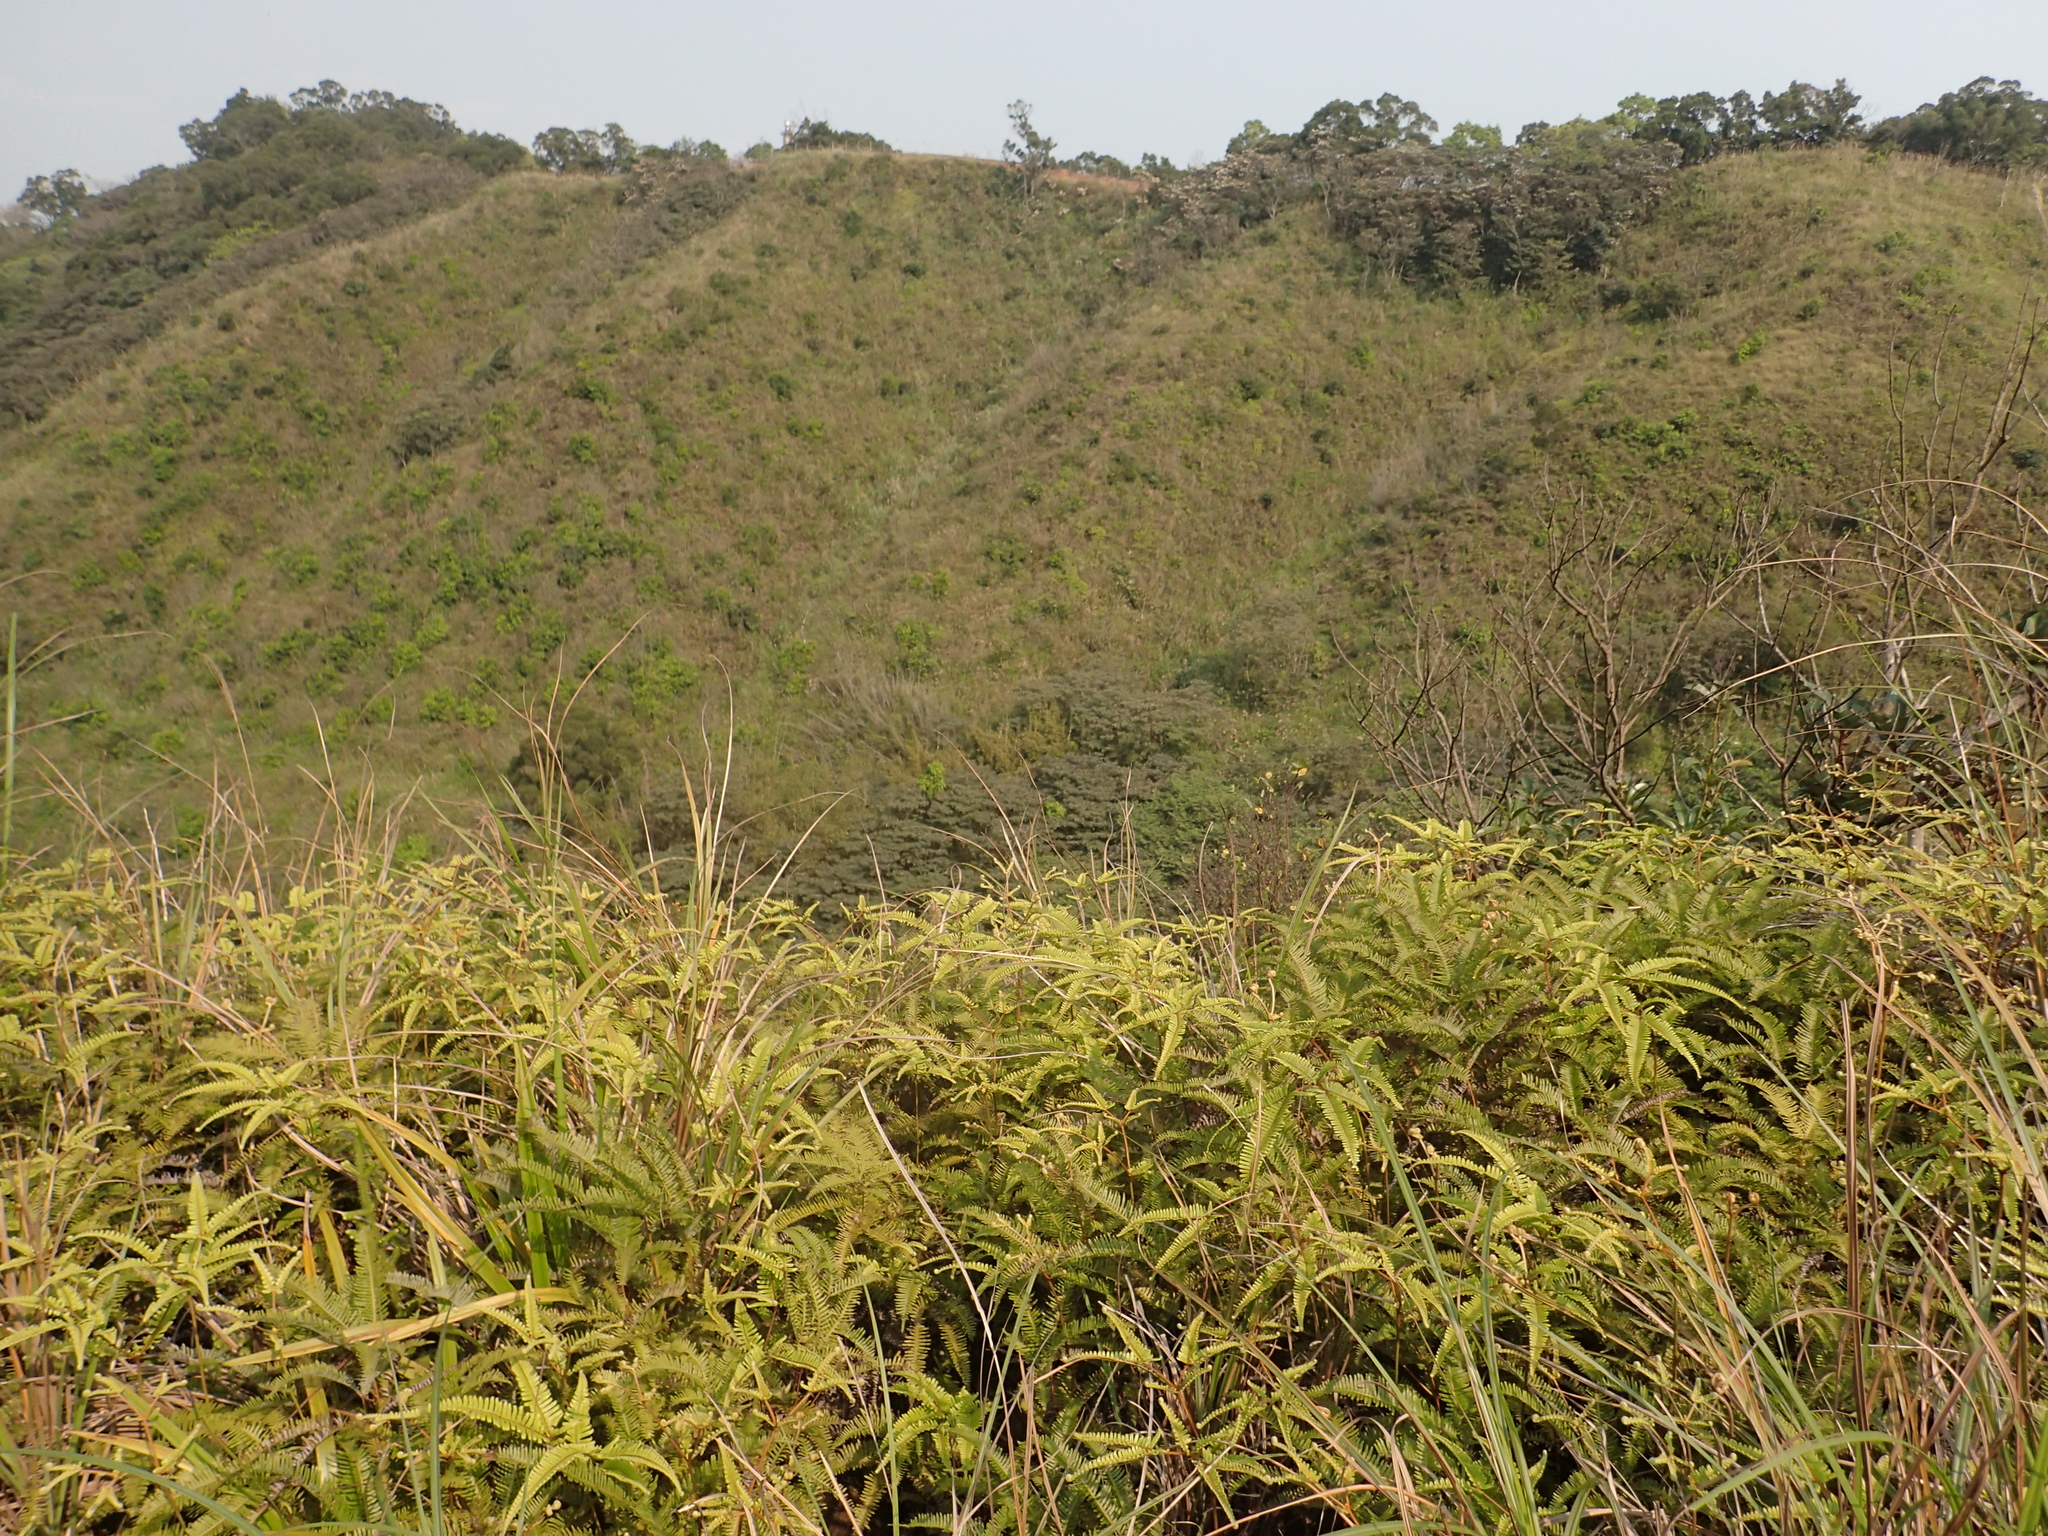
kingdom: Plantae
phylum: Tracheophyta
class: Polypodiopsida
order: Gleicheniales
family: Gleicheniaceae
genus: Dicranopteris
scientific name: Dicranopteris linearis
